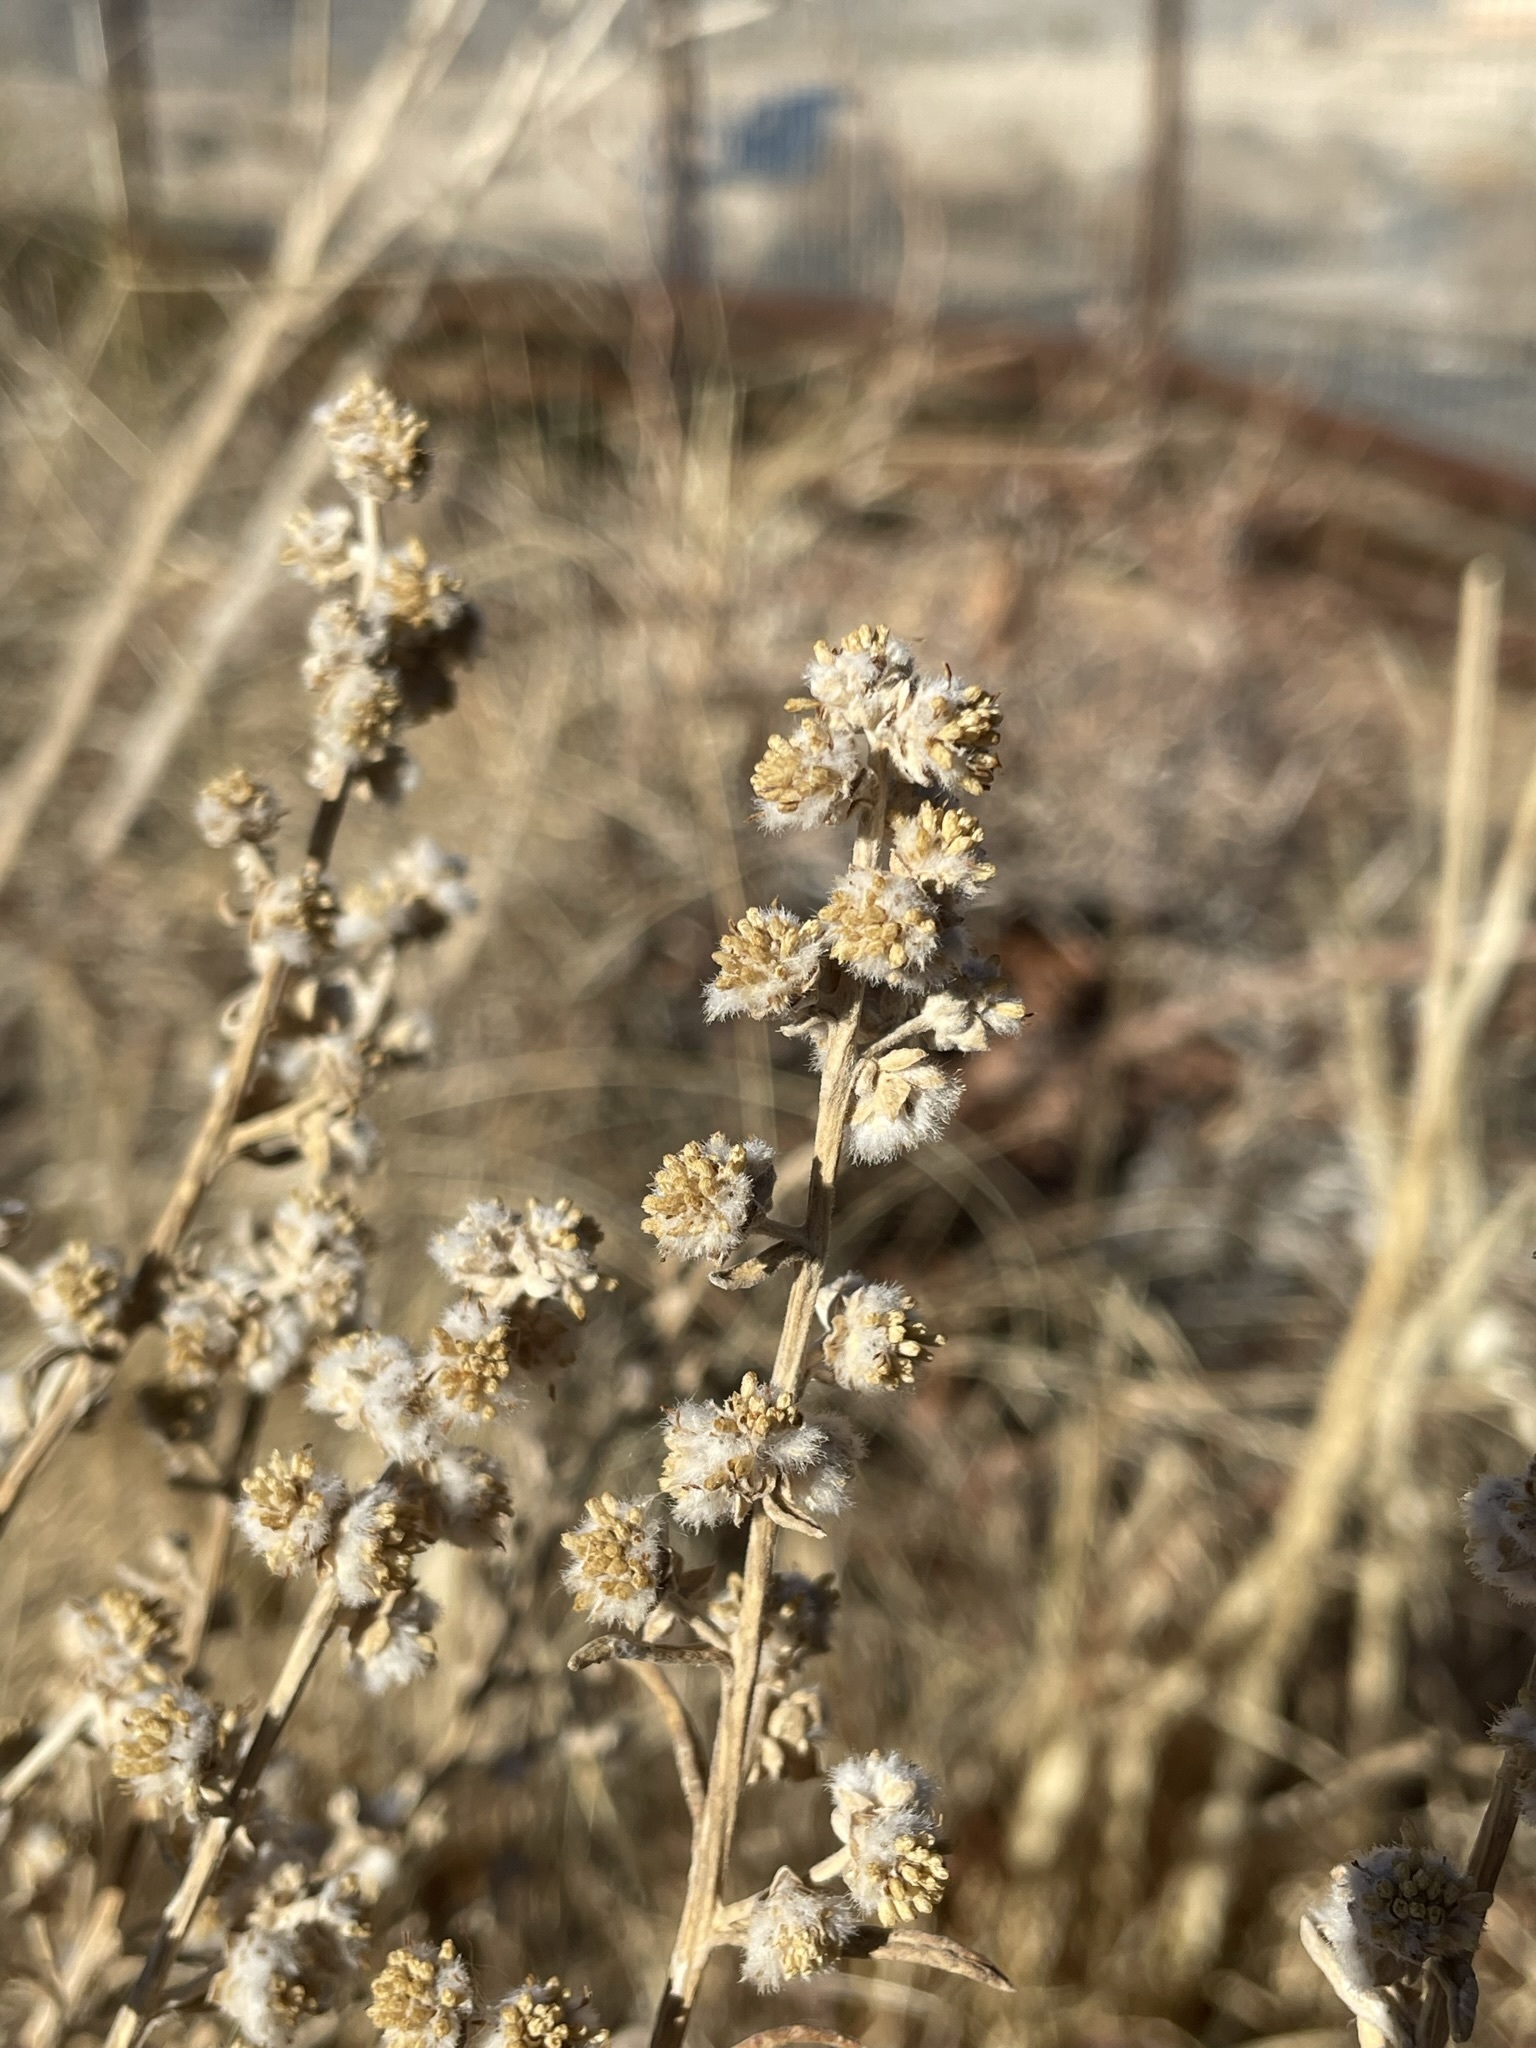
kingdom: Plantae
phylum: Tracheophyta
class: Magnoliopsida
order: Asterales
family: Asteraceae
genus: Euphrosyne
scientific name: Euphrosyne acerosa
